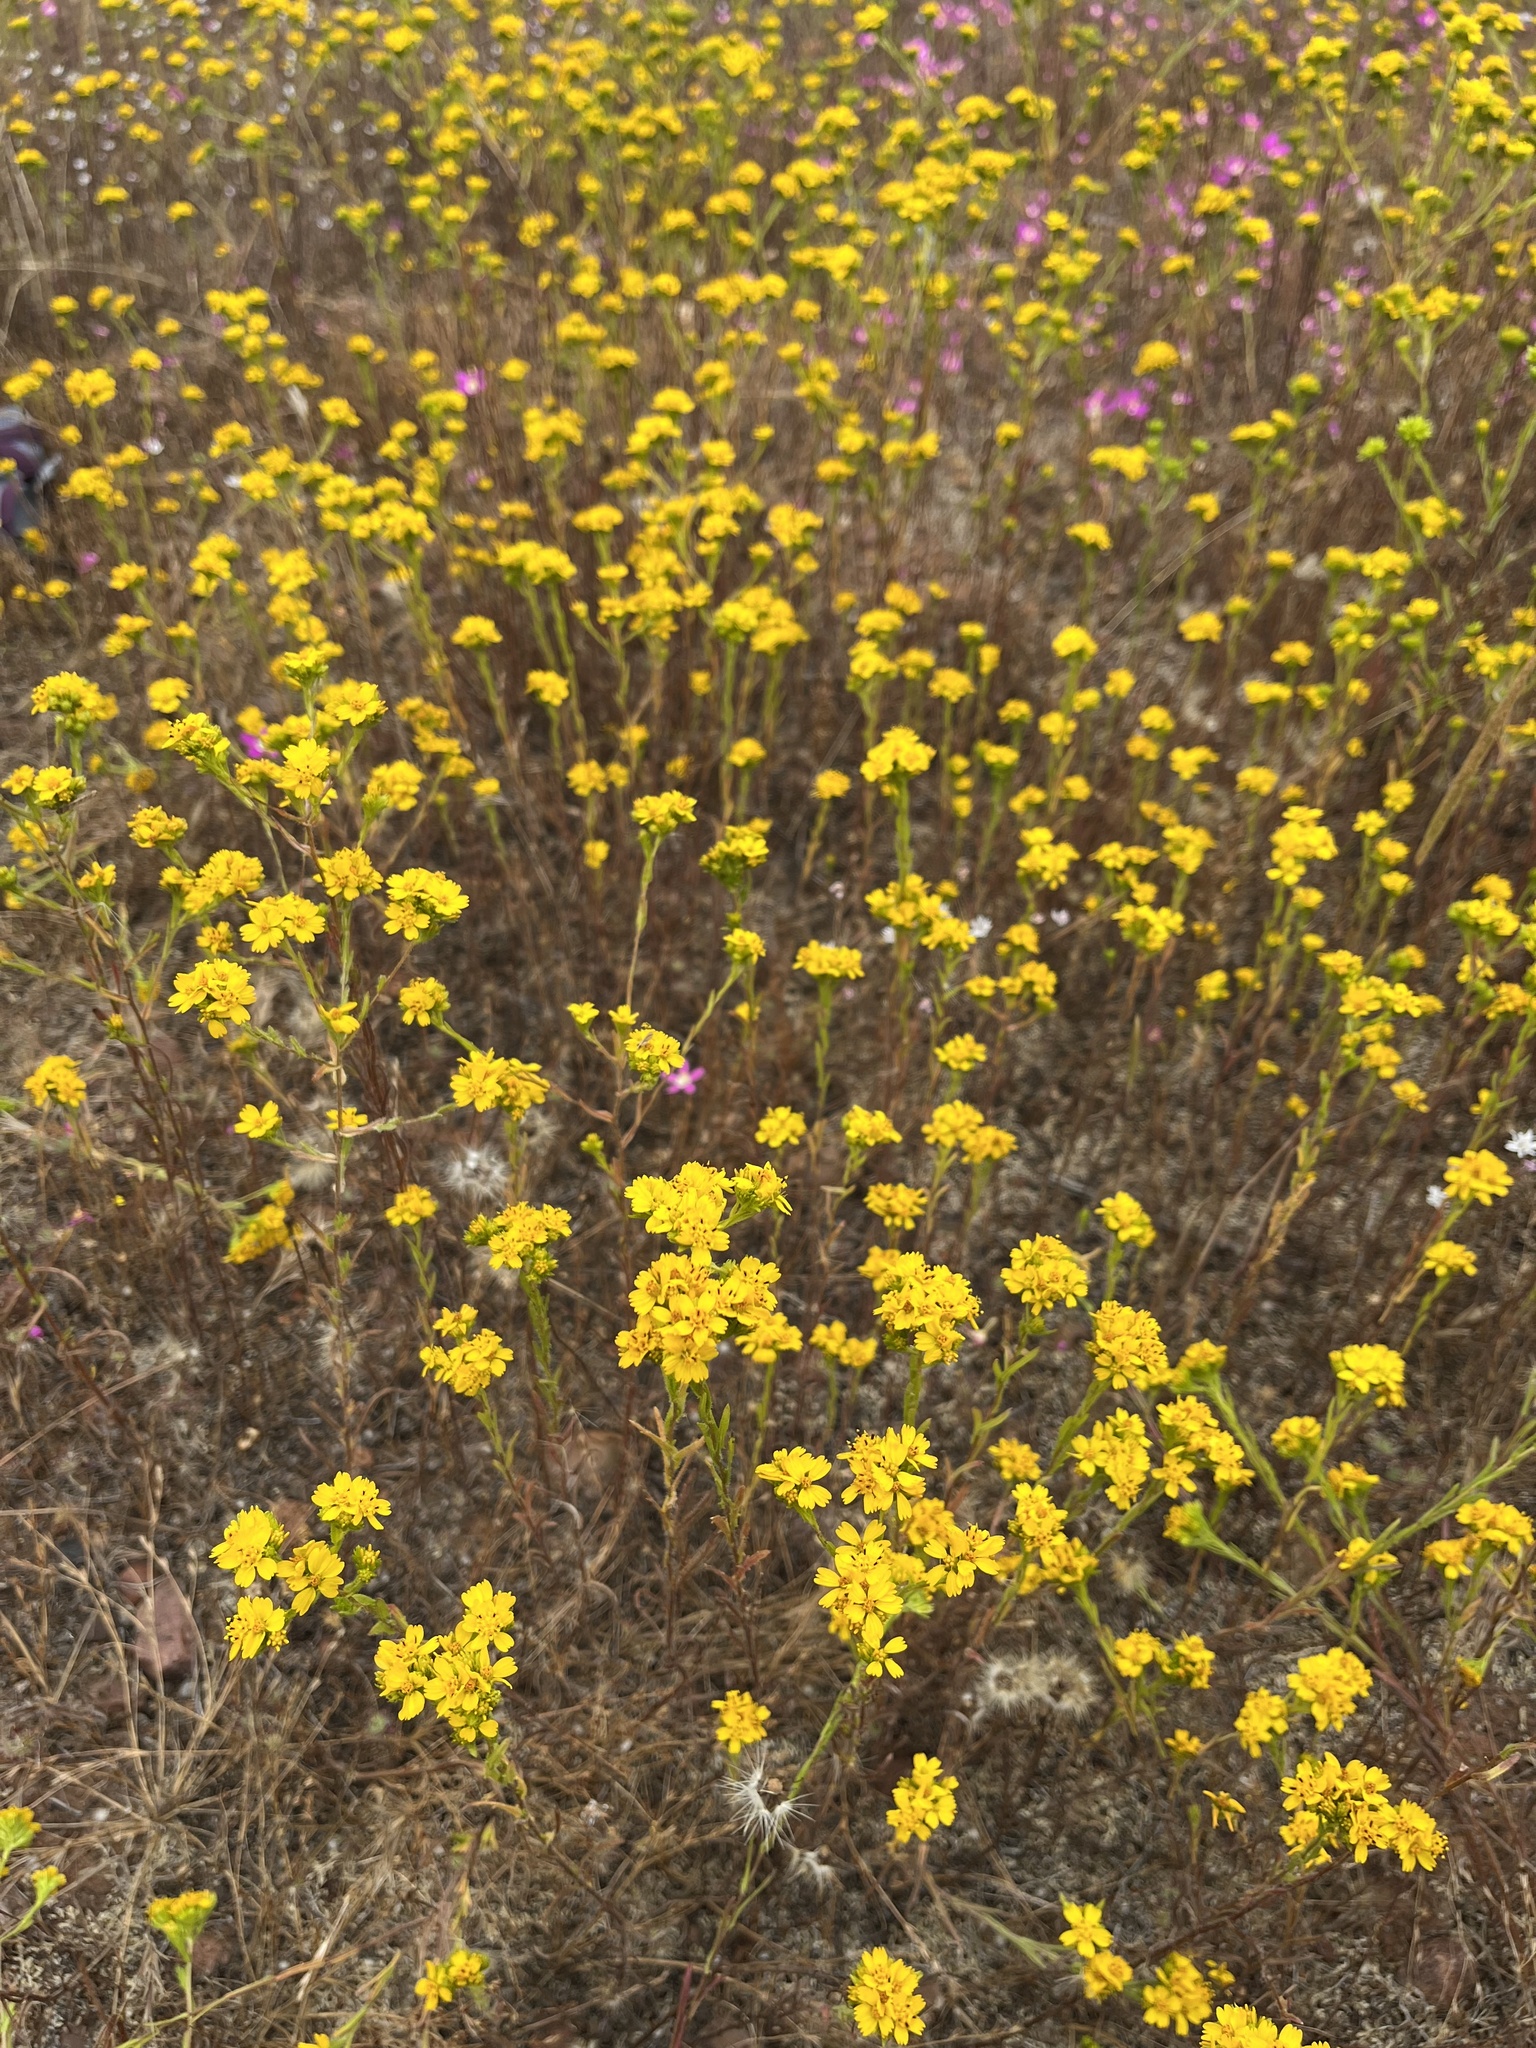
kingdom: Plantae
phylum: Tracheophyta
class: Magnoliopsida
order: Asterales
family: Asteraceae
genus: Deinandra
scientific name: Deinandra fasciculata
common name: Clustered tarweed
